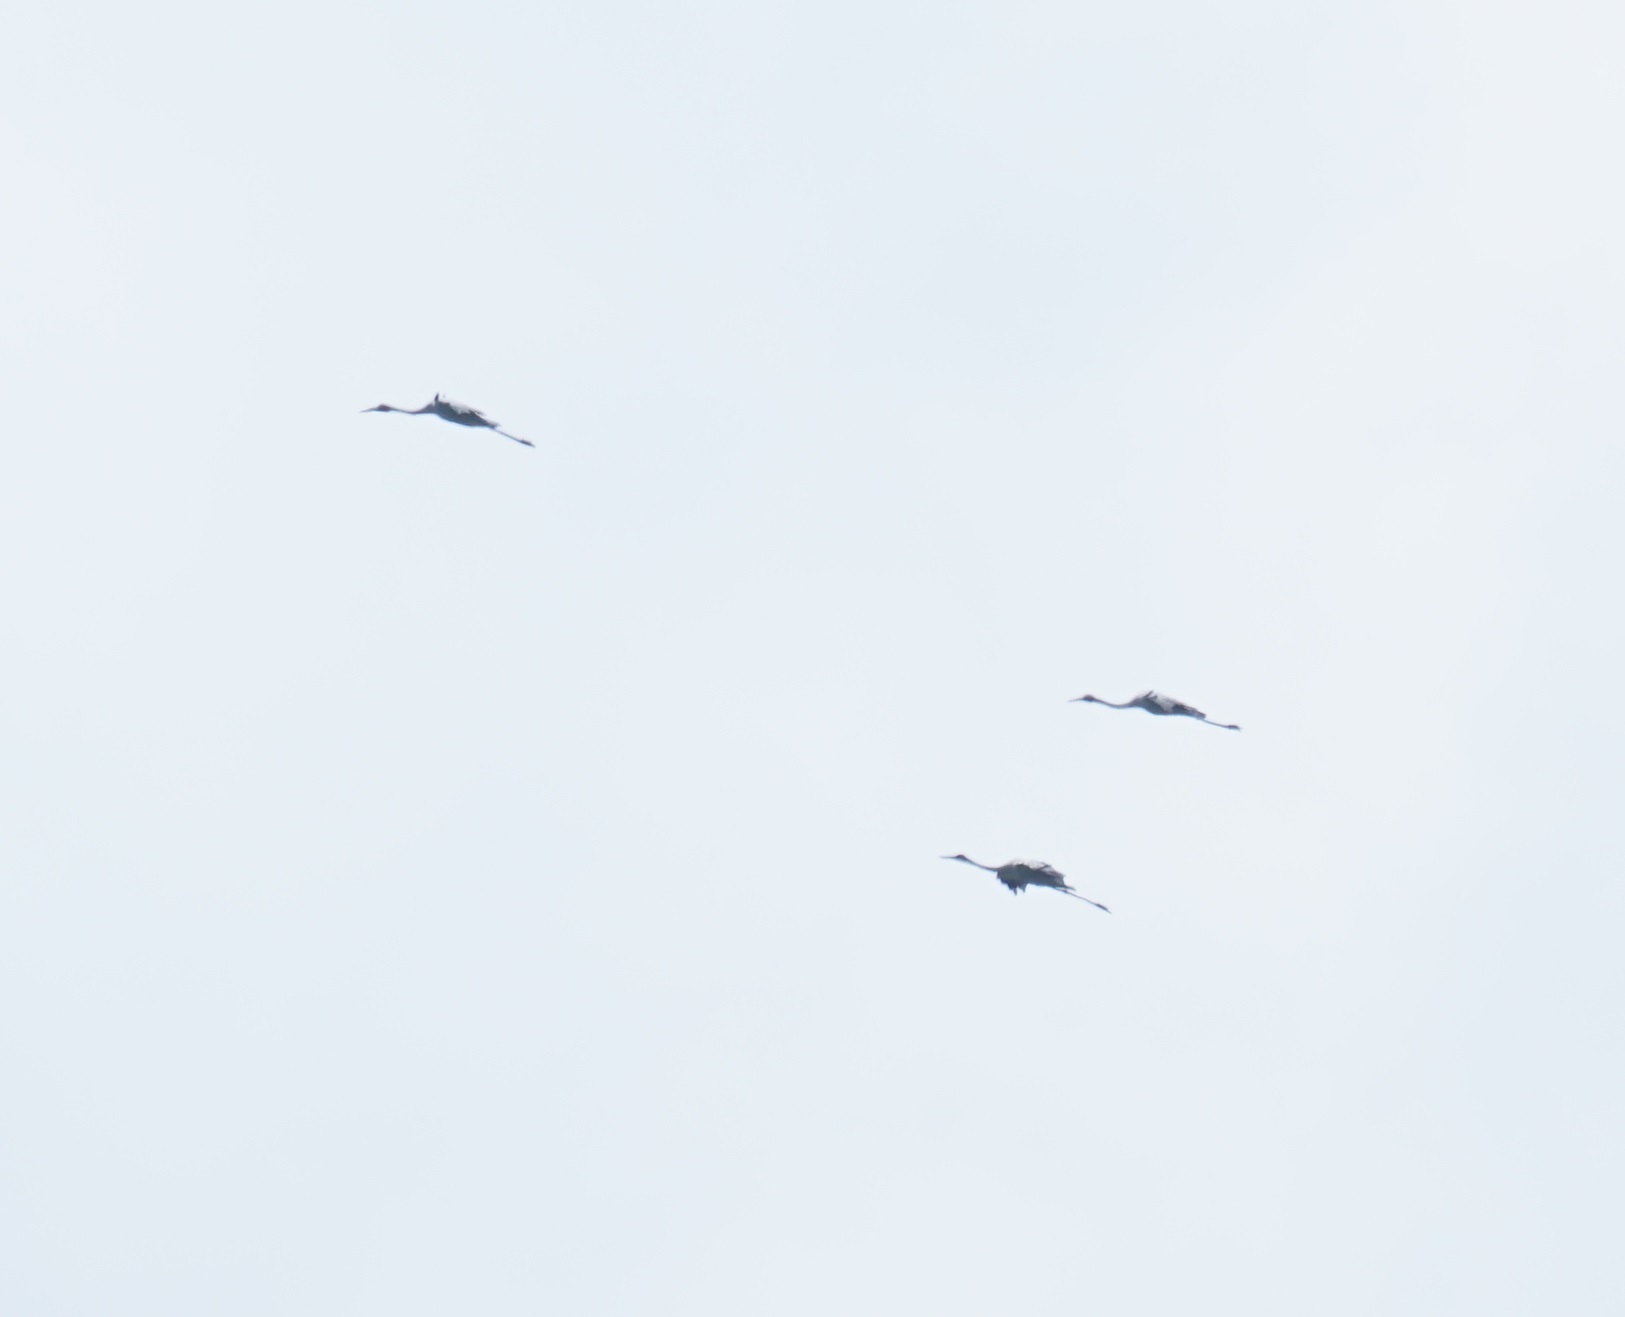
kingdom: Animalia
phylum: Chordata
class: Aves
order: Gruiformes
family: Gruidae
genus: Grus
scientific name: Grus rubicunda
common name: Brolga
